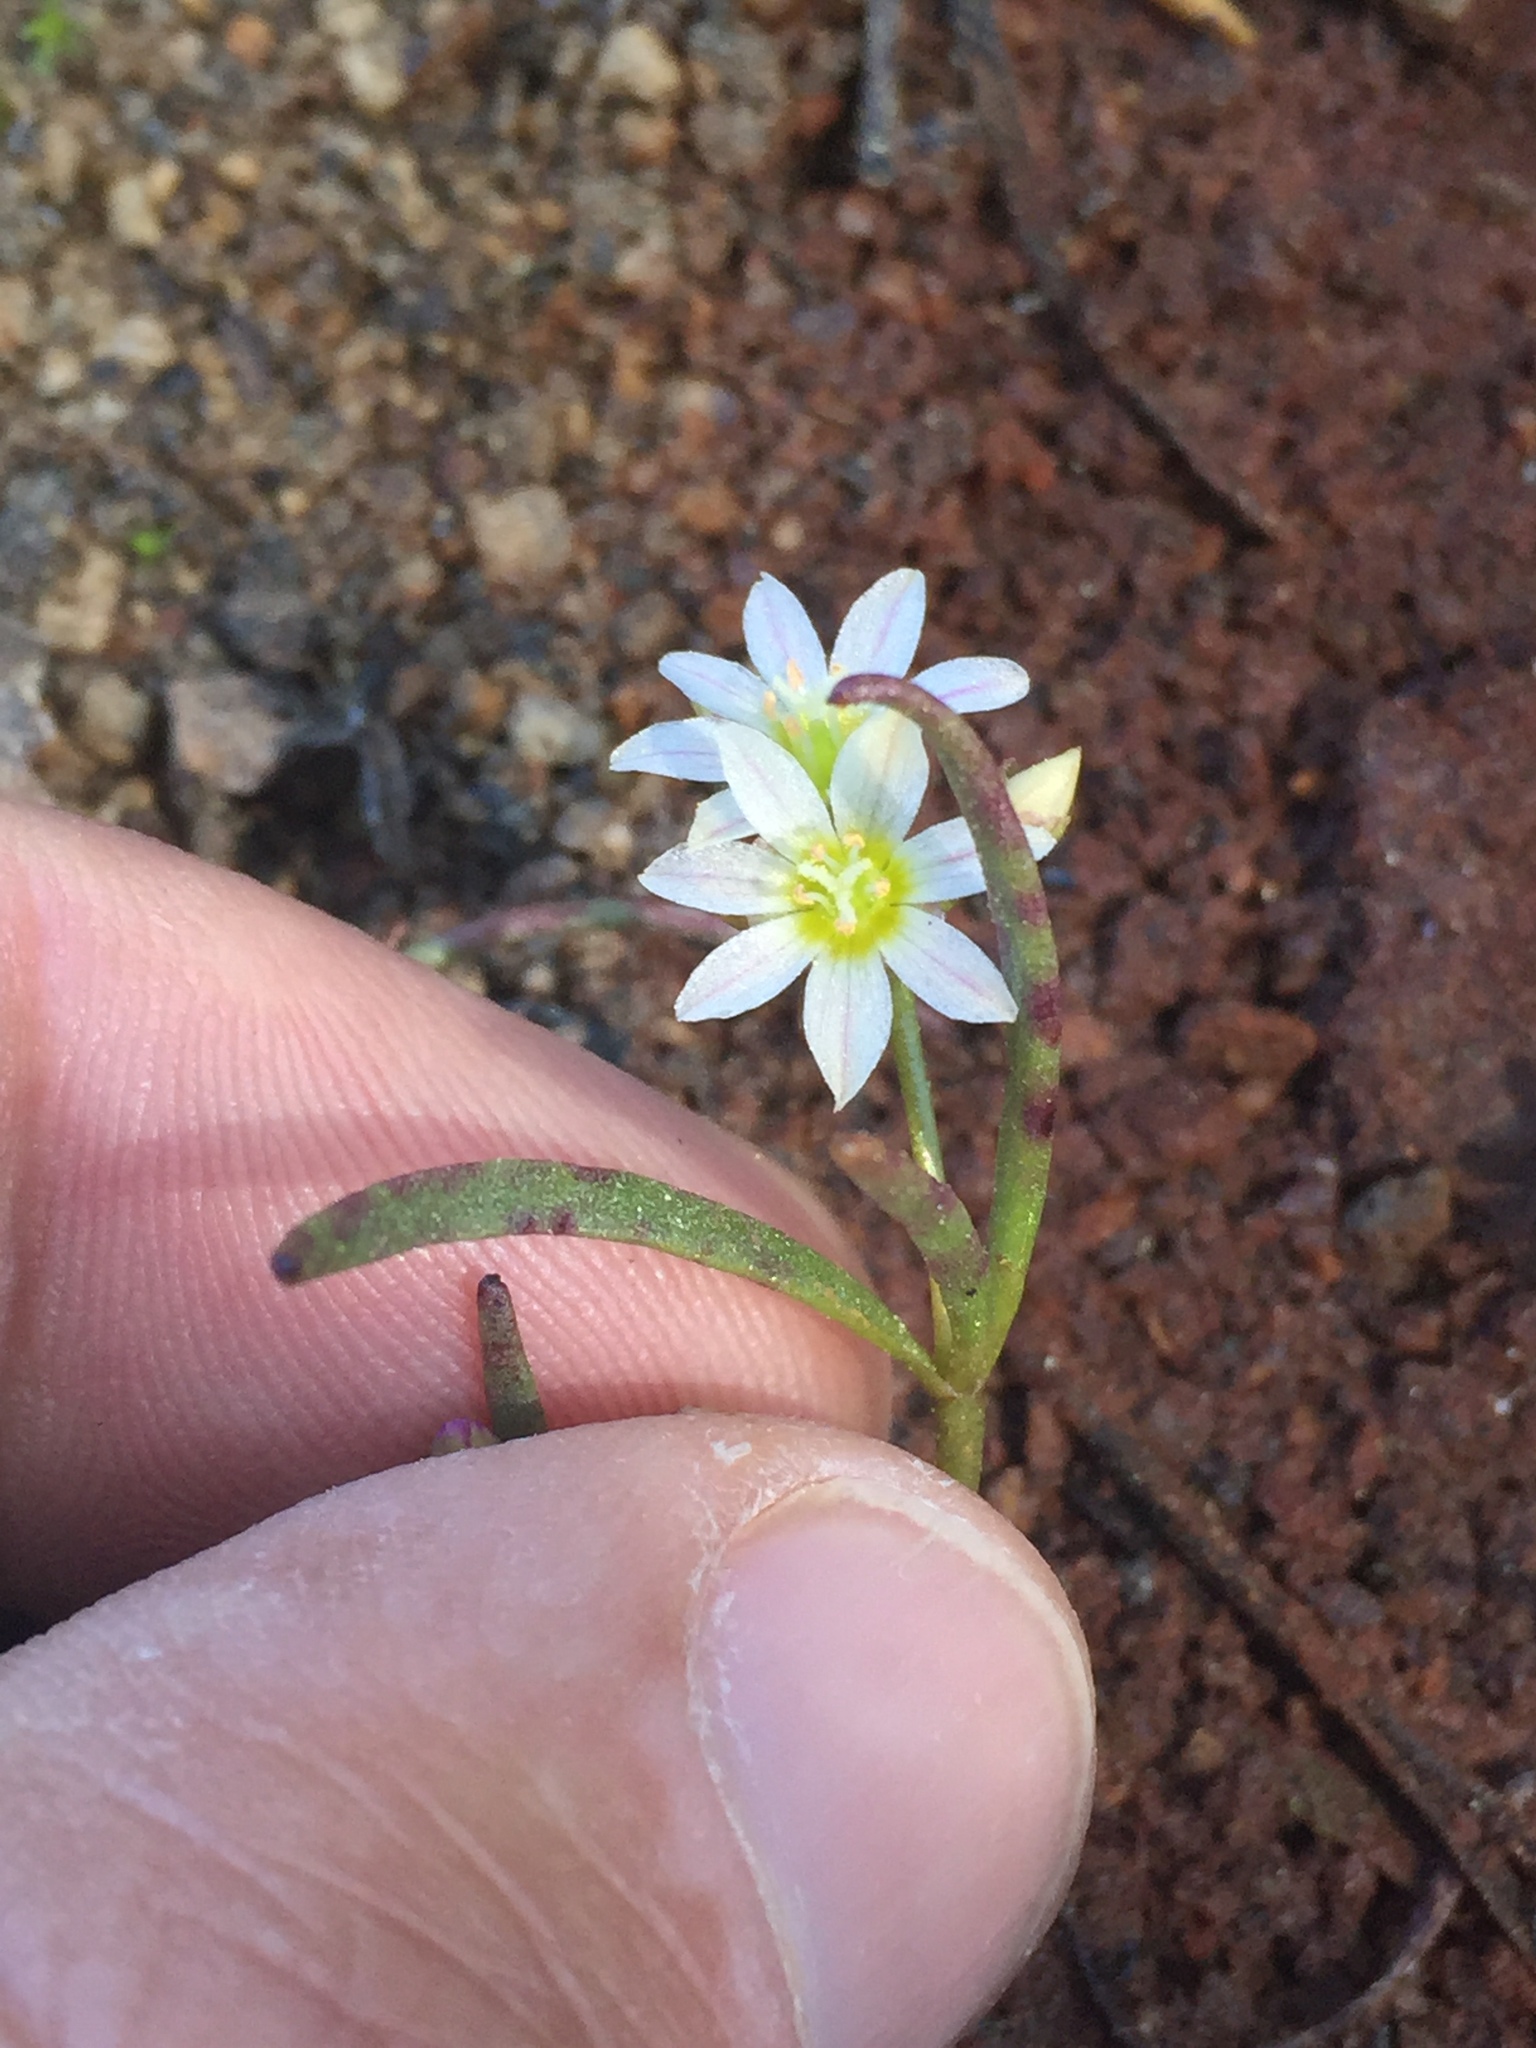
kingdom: Plantae
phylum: Tracheophyta
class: Magnoliopsida
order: Caryophyllales
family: Montiaceae
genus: Lewisia
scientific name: Lewisia triphylla
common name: Three-leaved bitterroot
